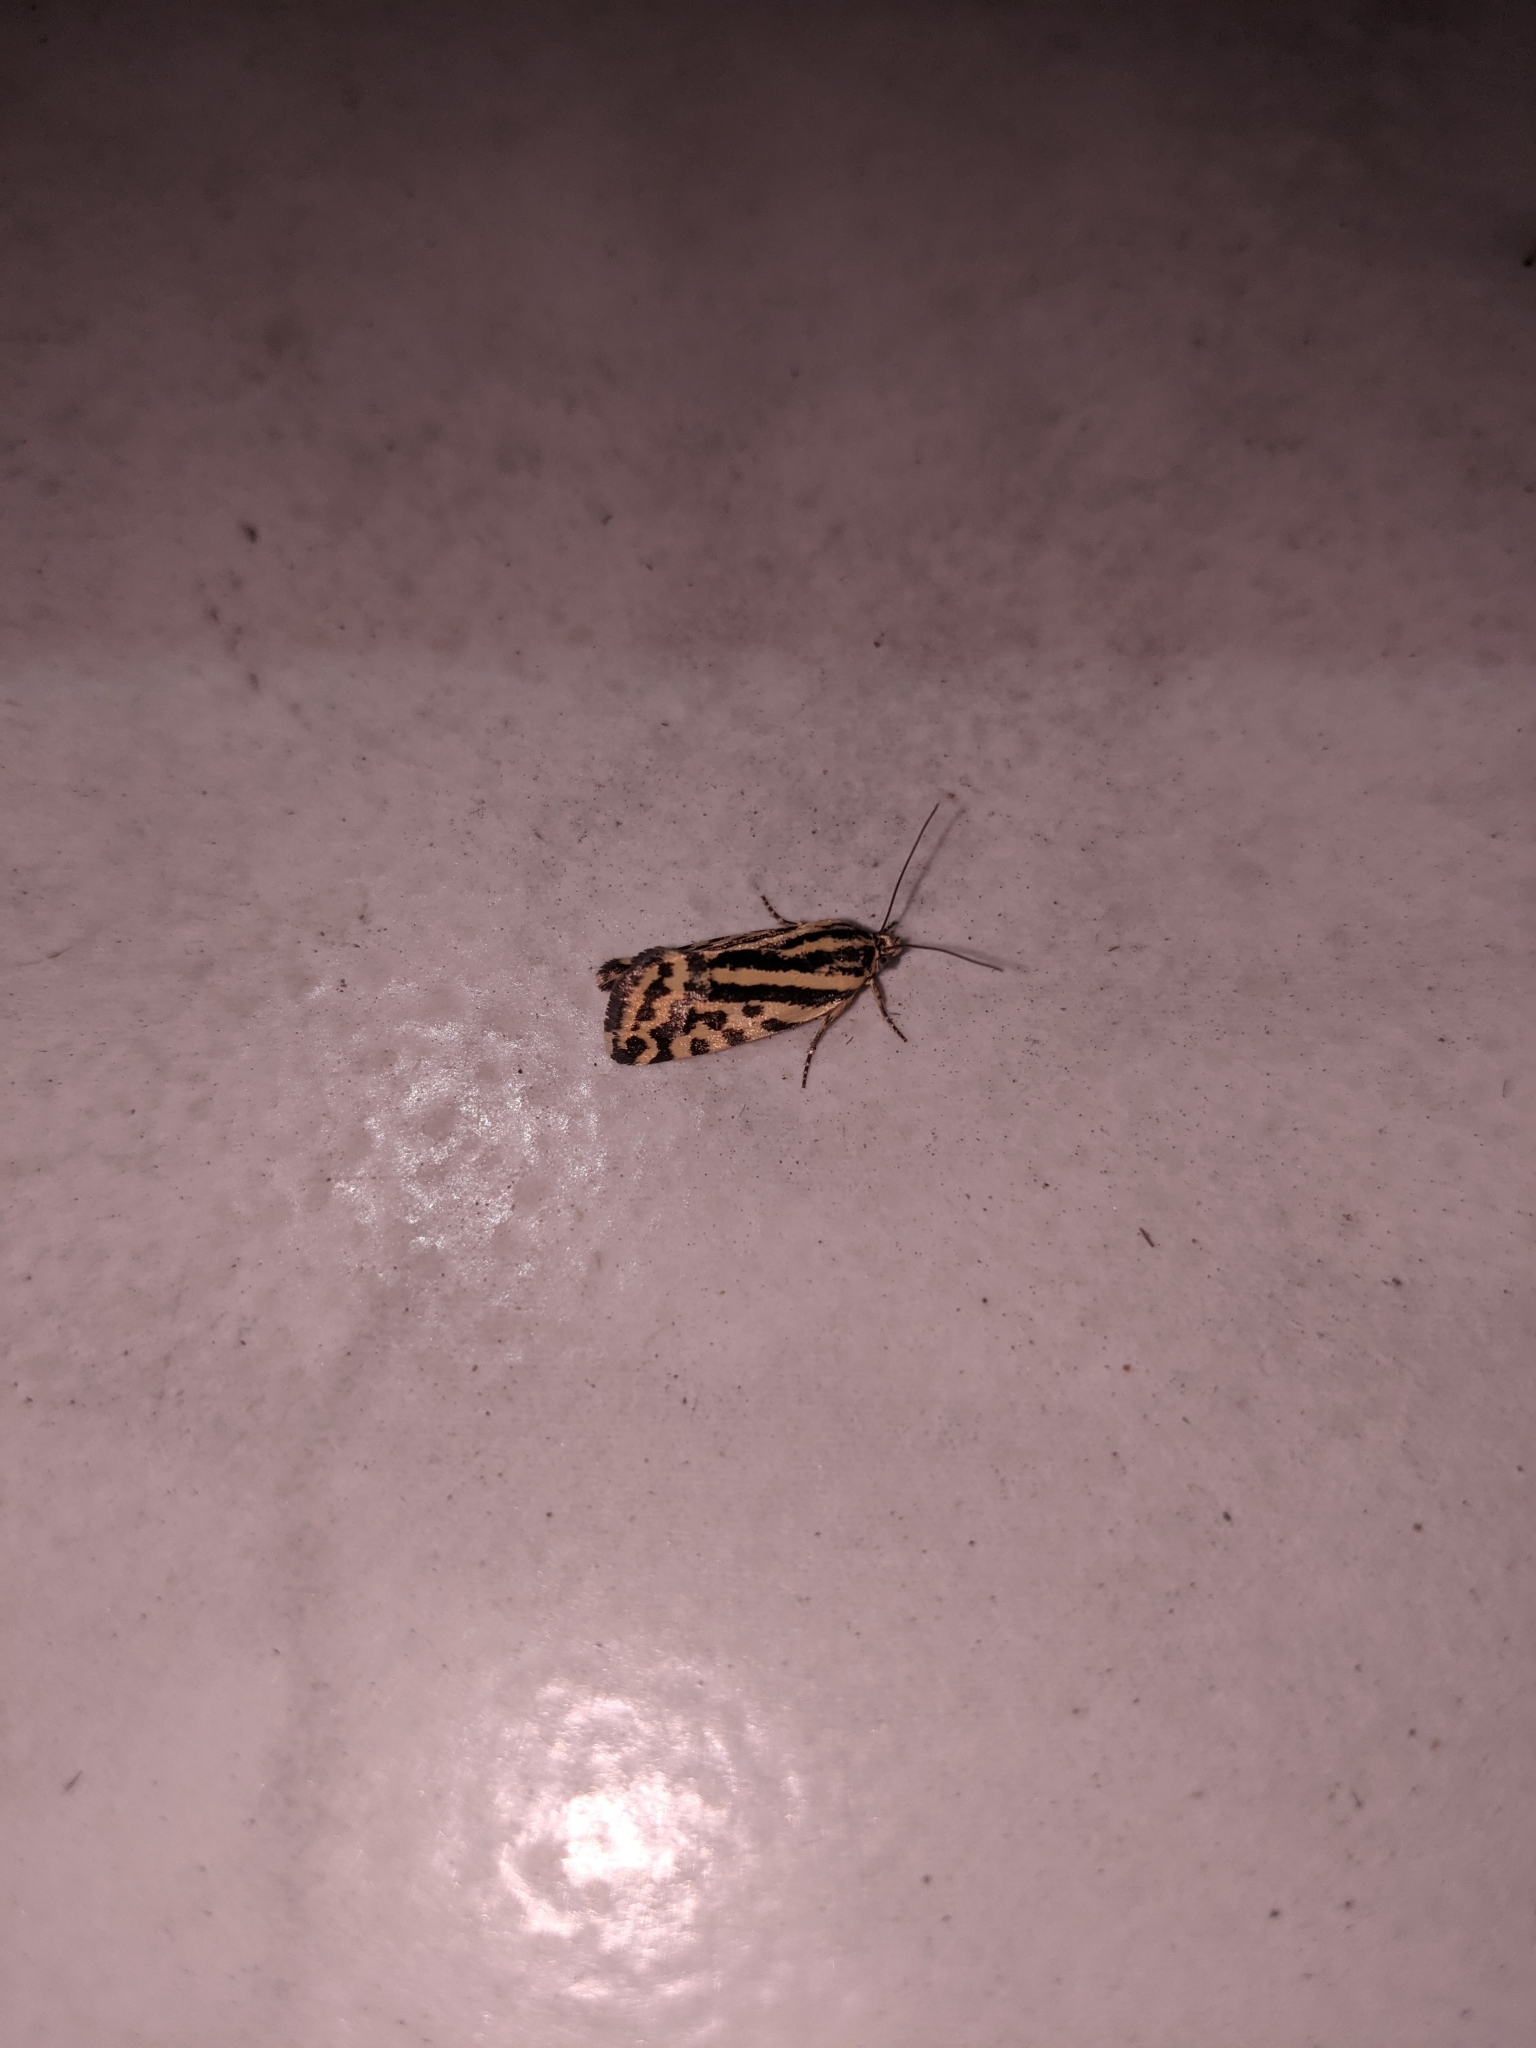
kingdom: Animalia
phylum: Arthropoda
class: Insecta
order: Lepidoptera
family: Noctuidae
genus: Acontia
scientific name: Acontia trabealis
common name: Spotted sulphur
